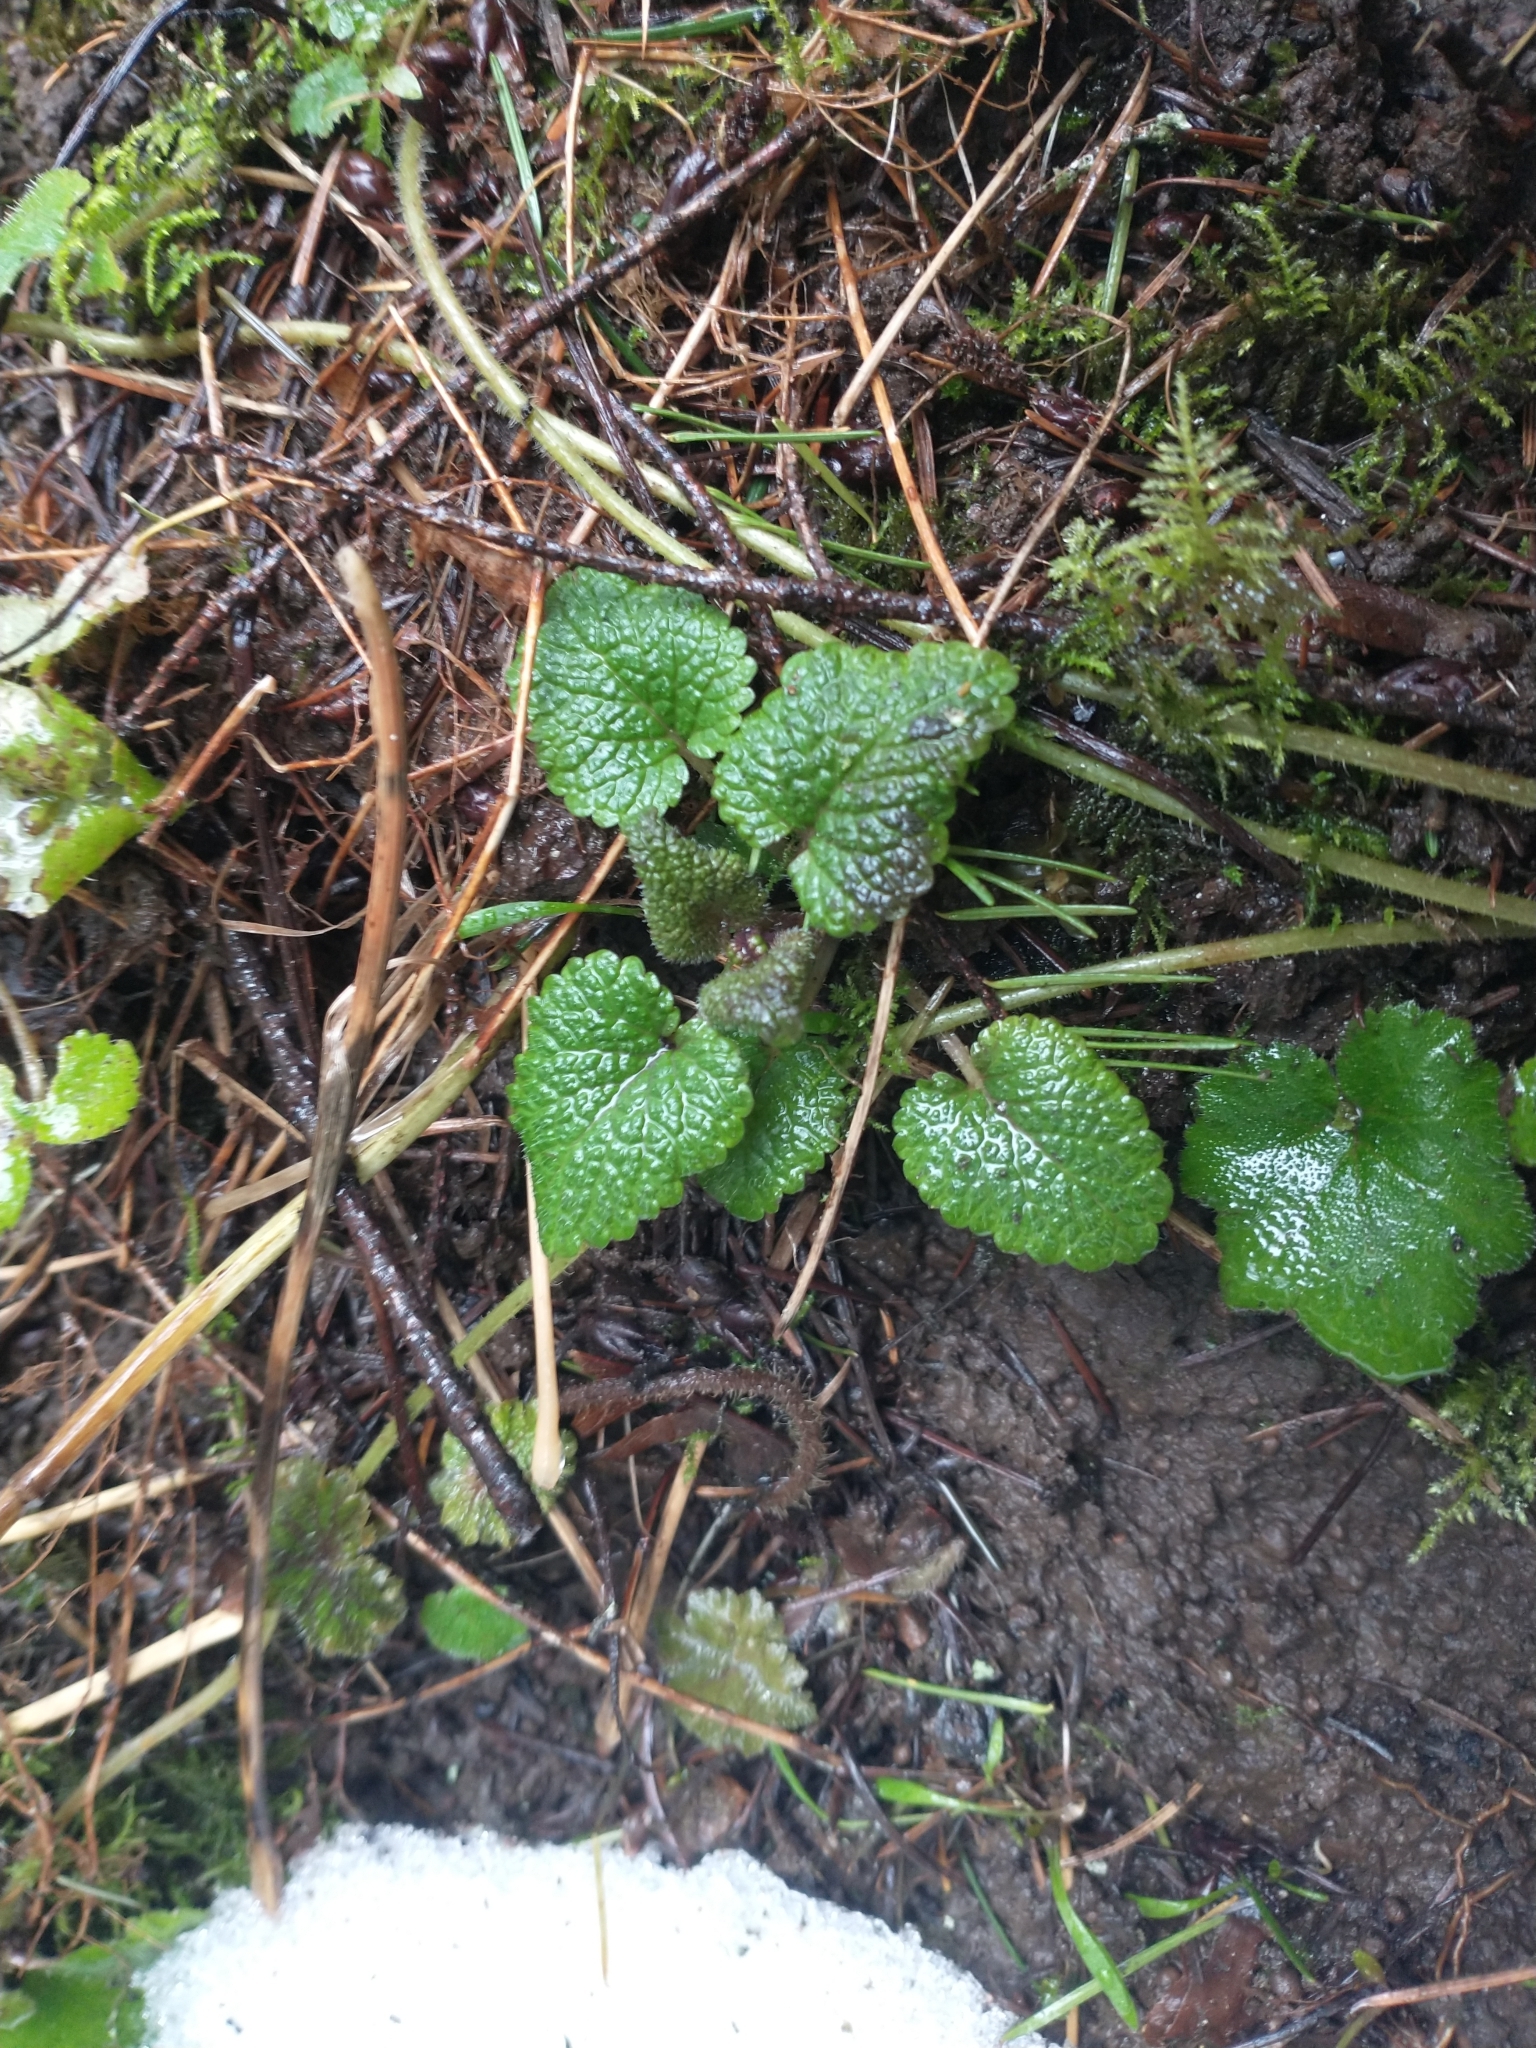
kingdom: Plantae
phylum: Tracheophyta
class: Magnoliopsida
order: Lamiales
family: Lamiaceae
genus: Melissa
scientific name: Melissa officinalis
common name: Balm
